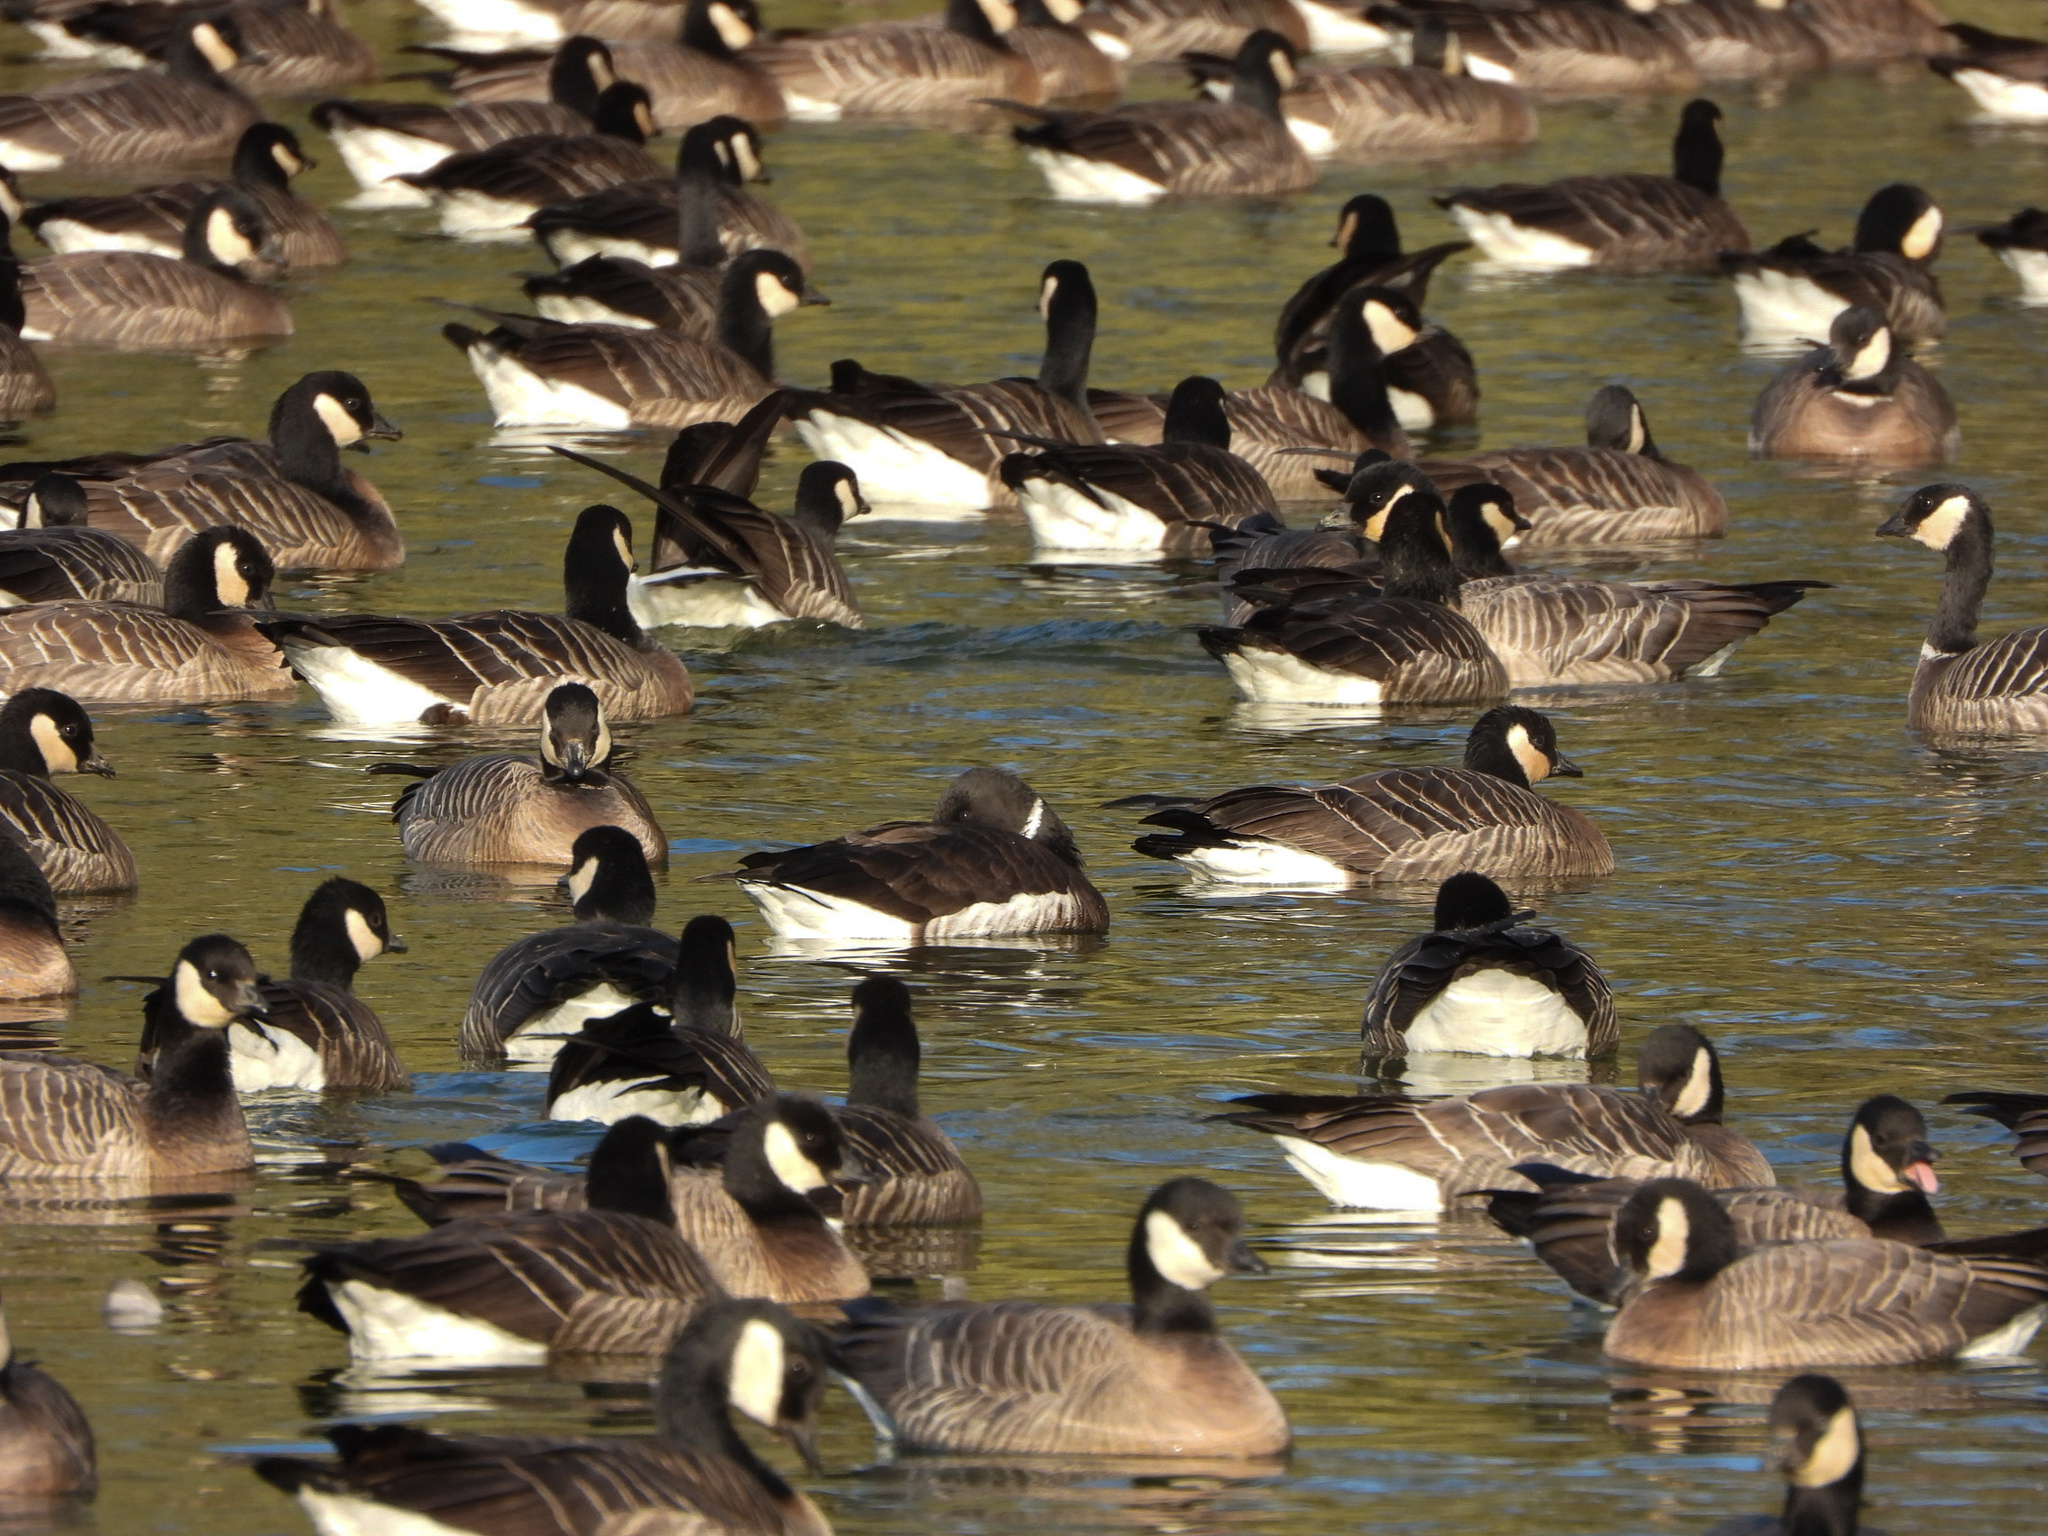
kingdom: Animalia
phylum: Chordata
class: Aves
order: Anseriformes
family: Anatidae
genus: Branta
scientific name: Branta bernicla
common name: Brant goose
